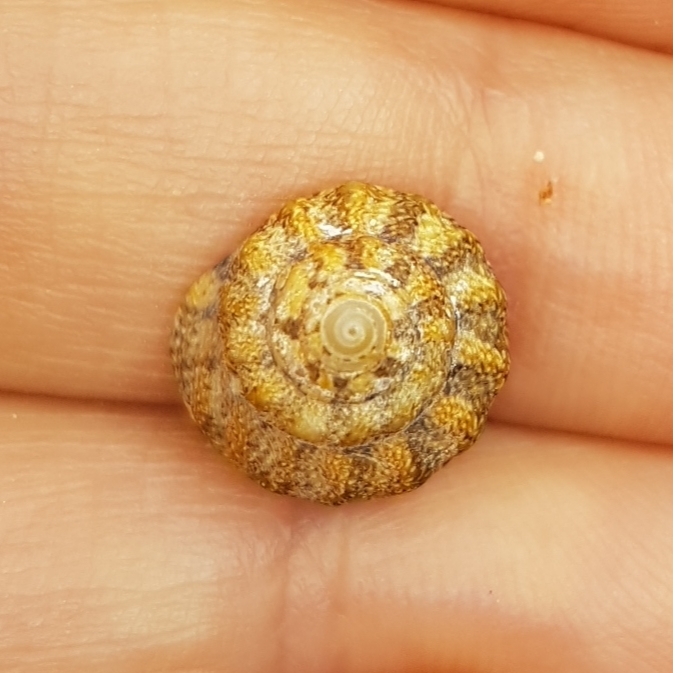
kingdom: Animalia
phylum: Mollusca
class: Gastropoda
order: Trochida
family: Trochidae
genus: Gibbula
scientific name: Gibbula fanulum
